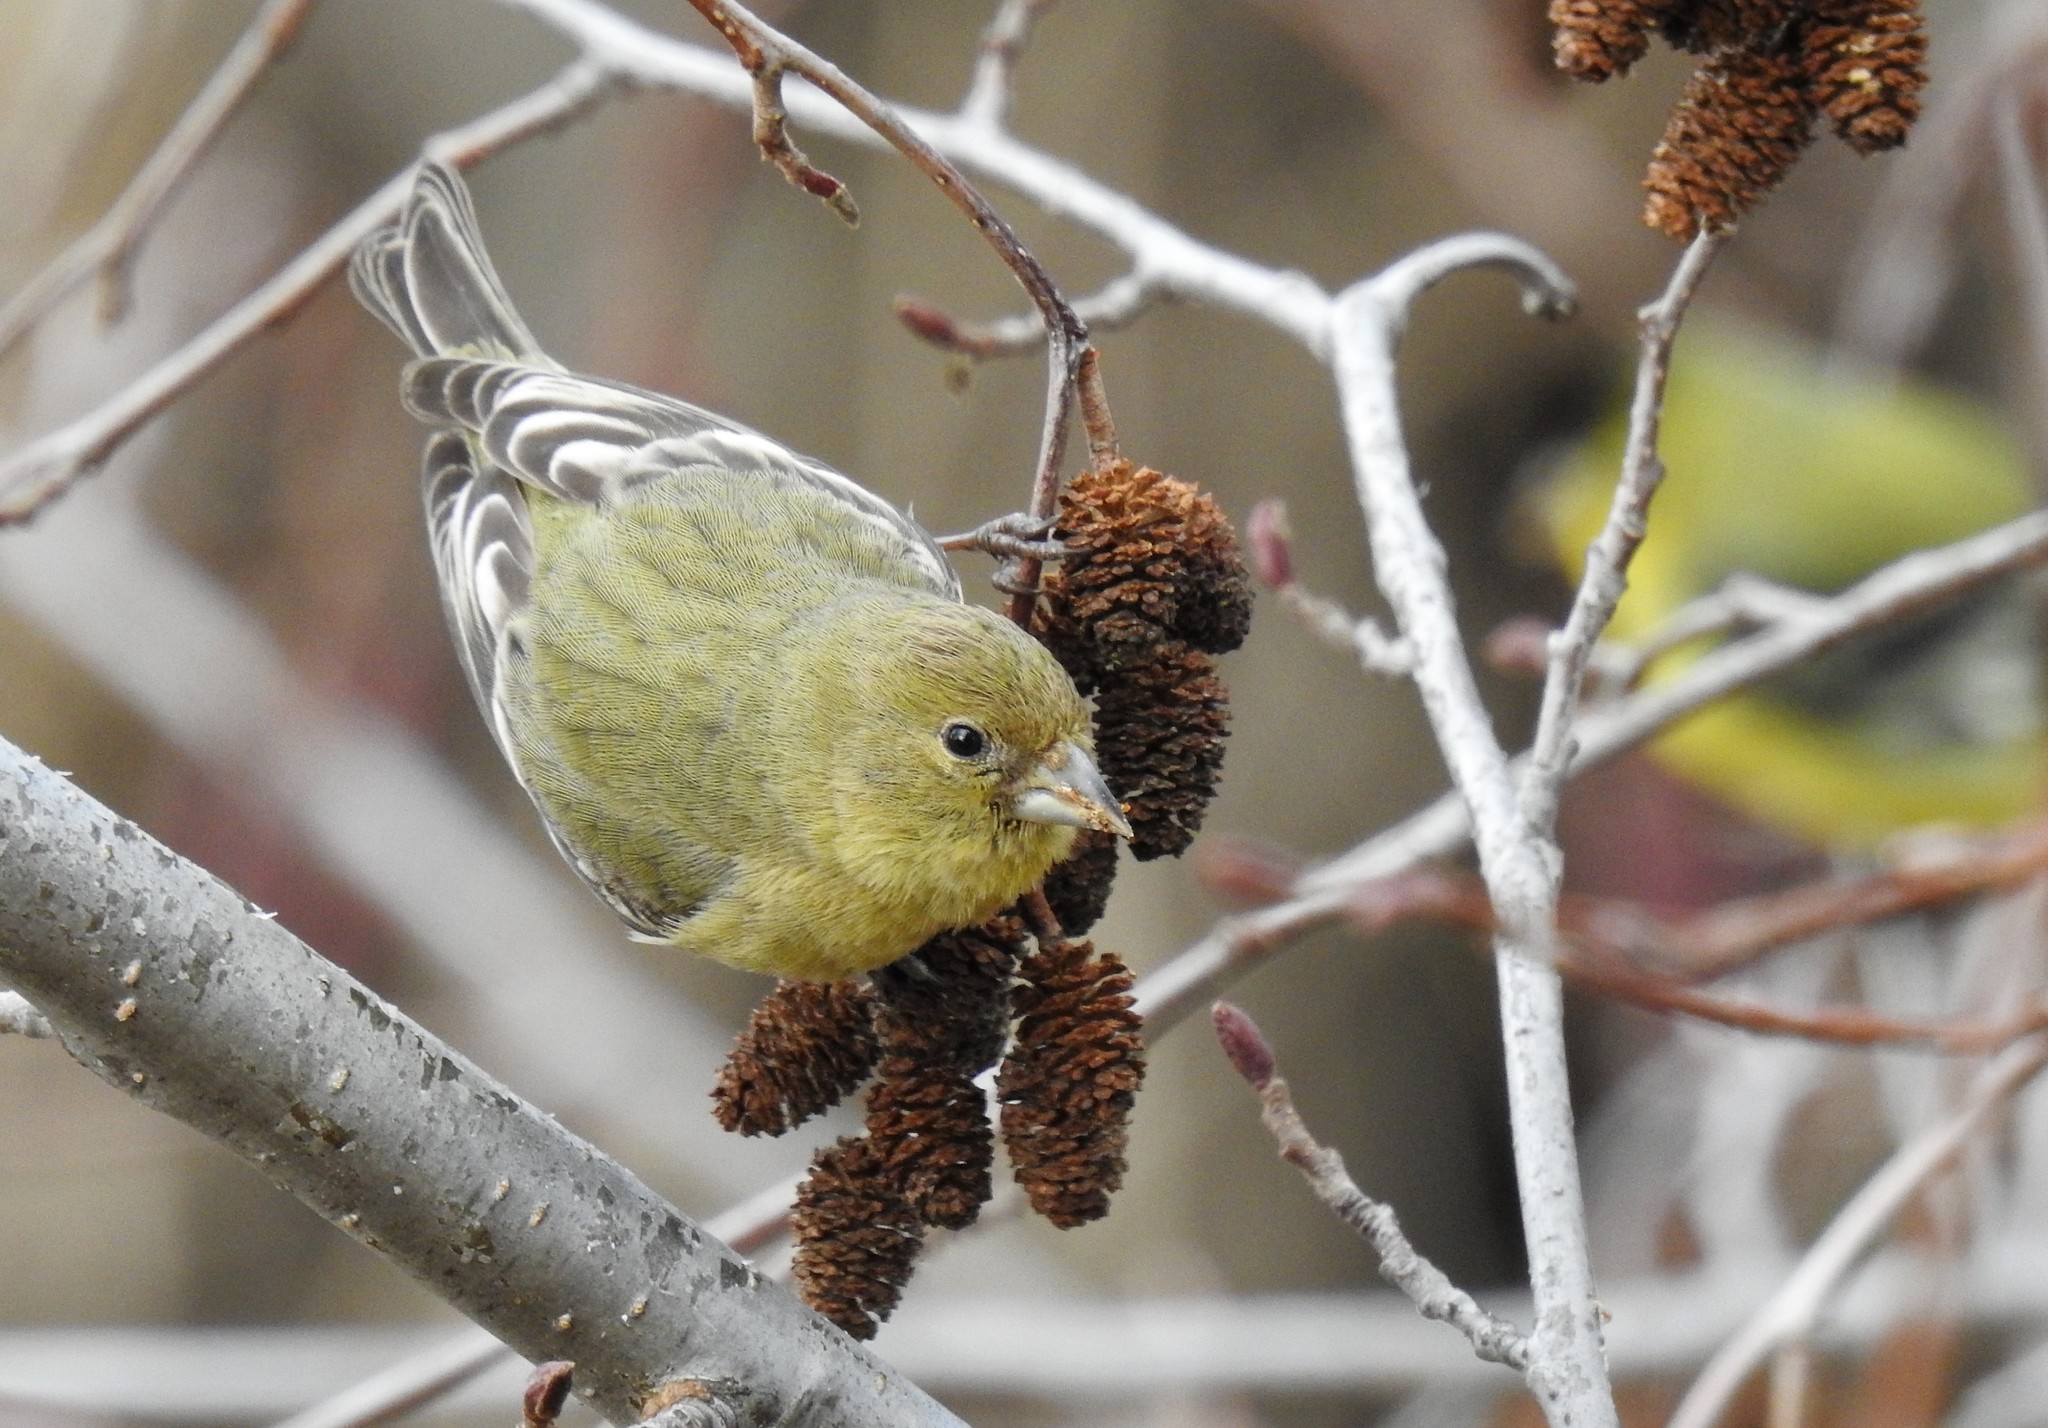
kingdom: Animalia
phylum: Chordata
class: Aves
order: Passeriformes
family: Fringillidae
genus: Spinus
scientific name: Spinus psaltria
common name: Lesser goldfinch
